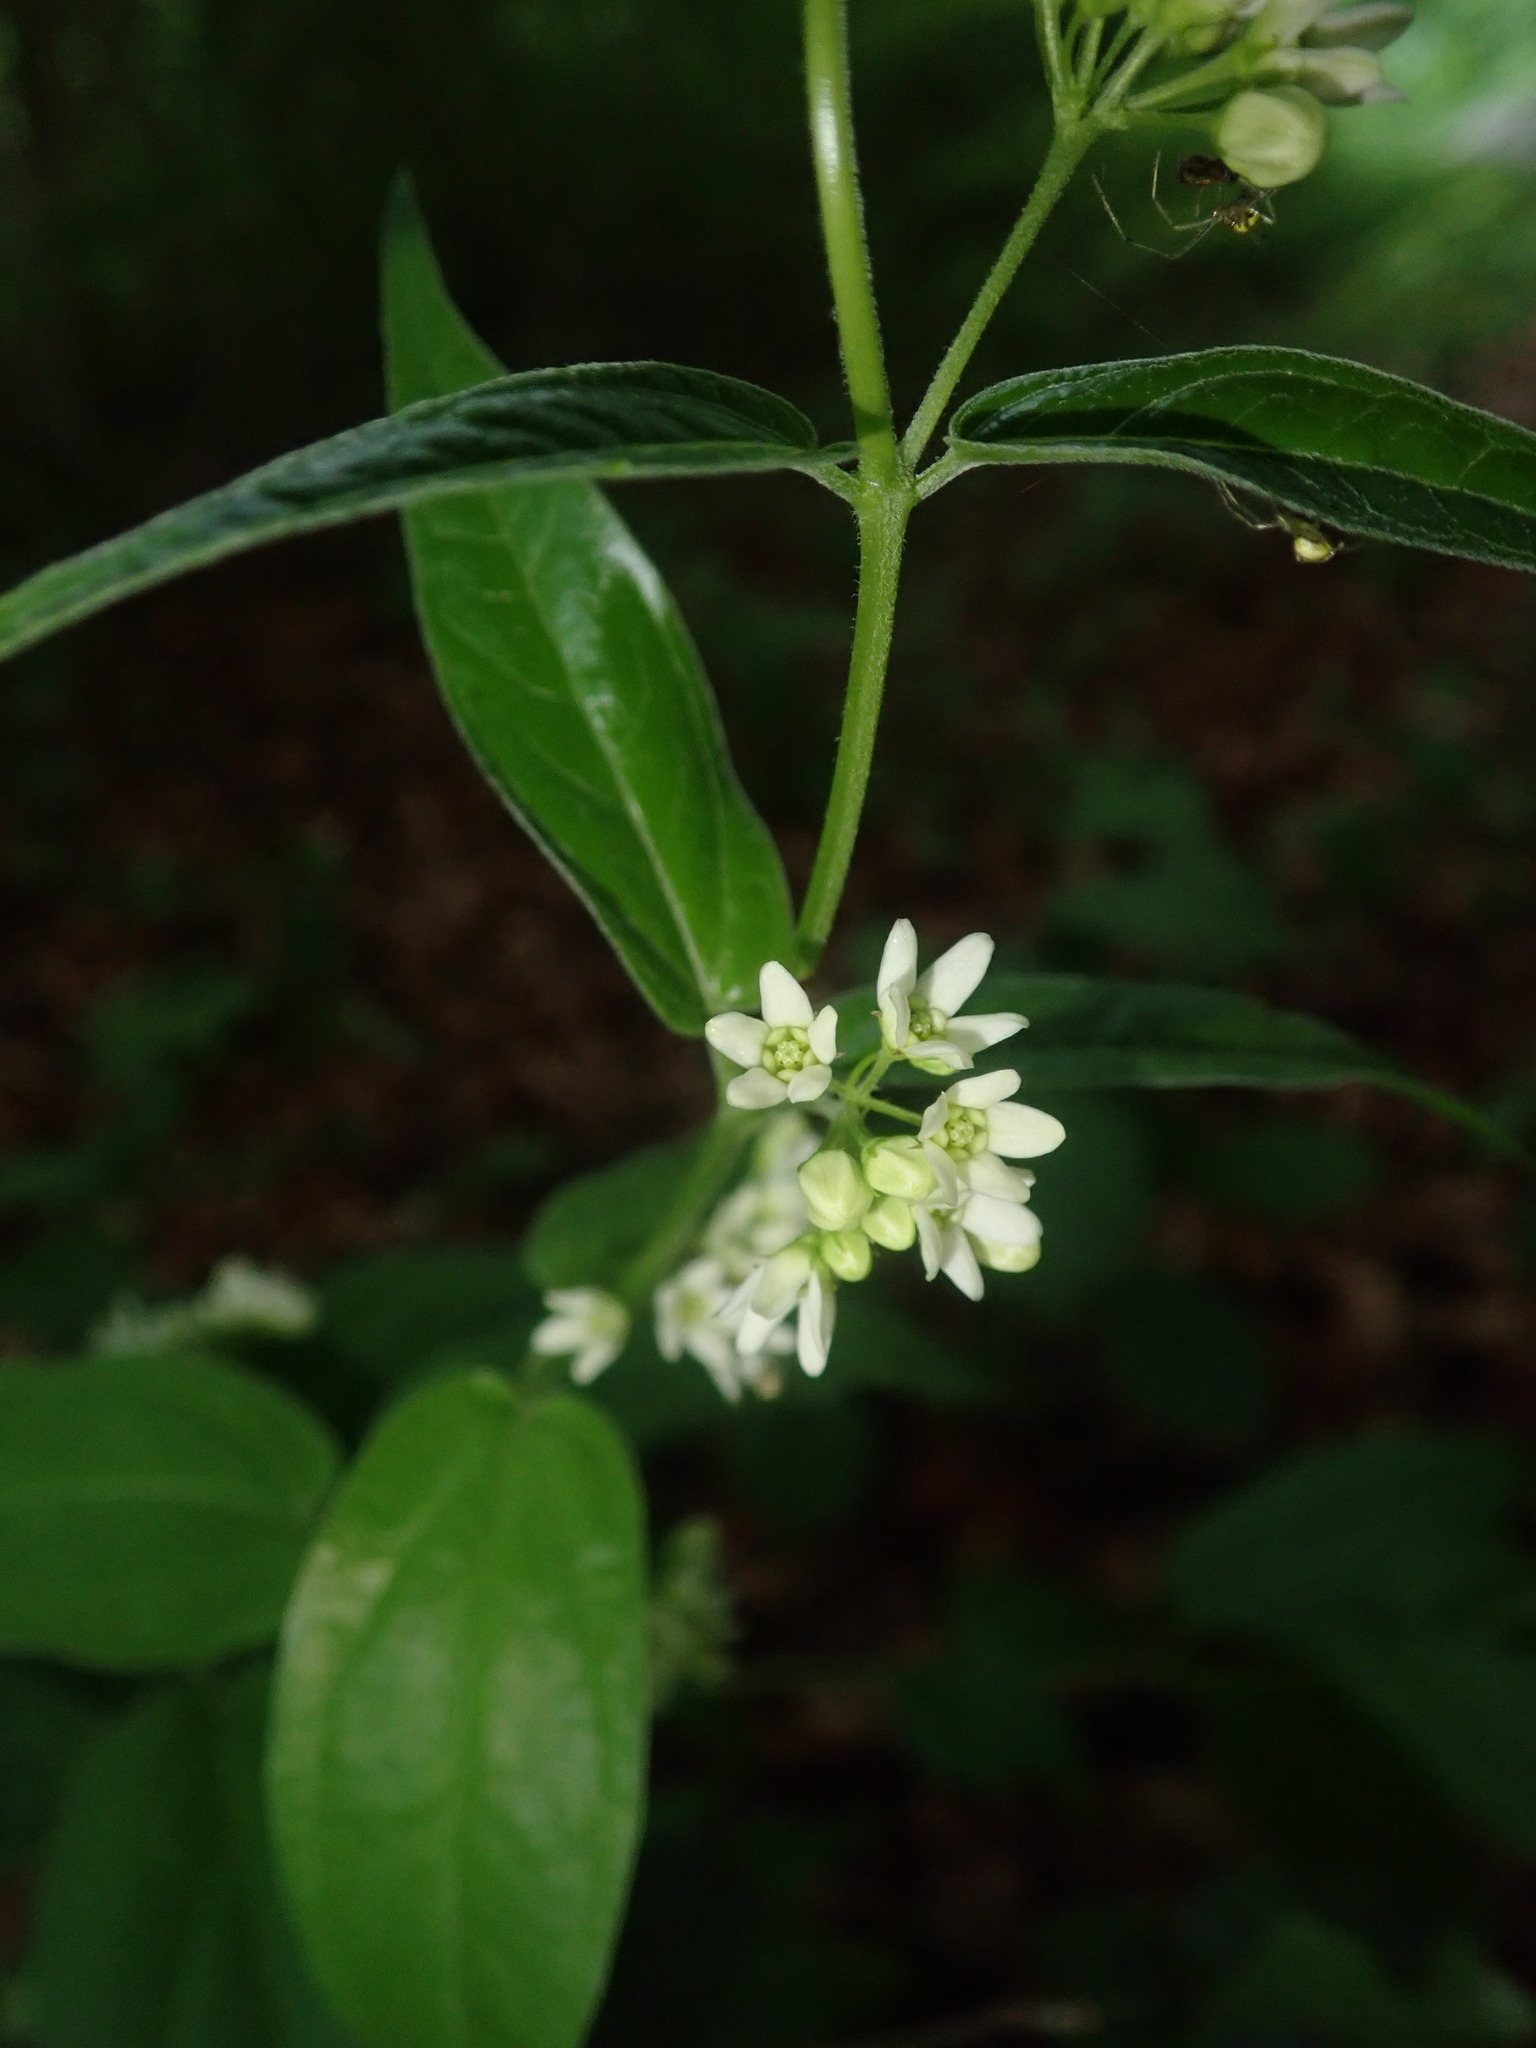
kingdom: Plantae
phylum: Tracheophyta
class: Magnoliopsida
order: Gentianales
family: Apocynaceae
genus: Vincetoxicum
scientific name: Vincetoxicum hirundinaria
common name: White swallowwort
